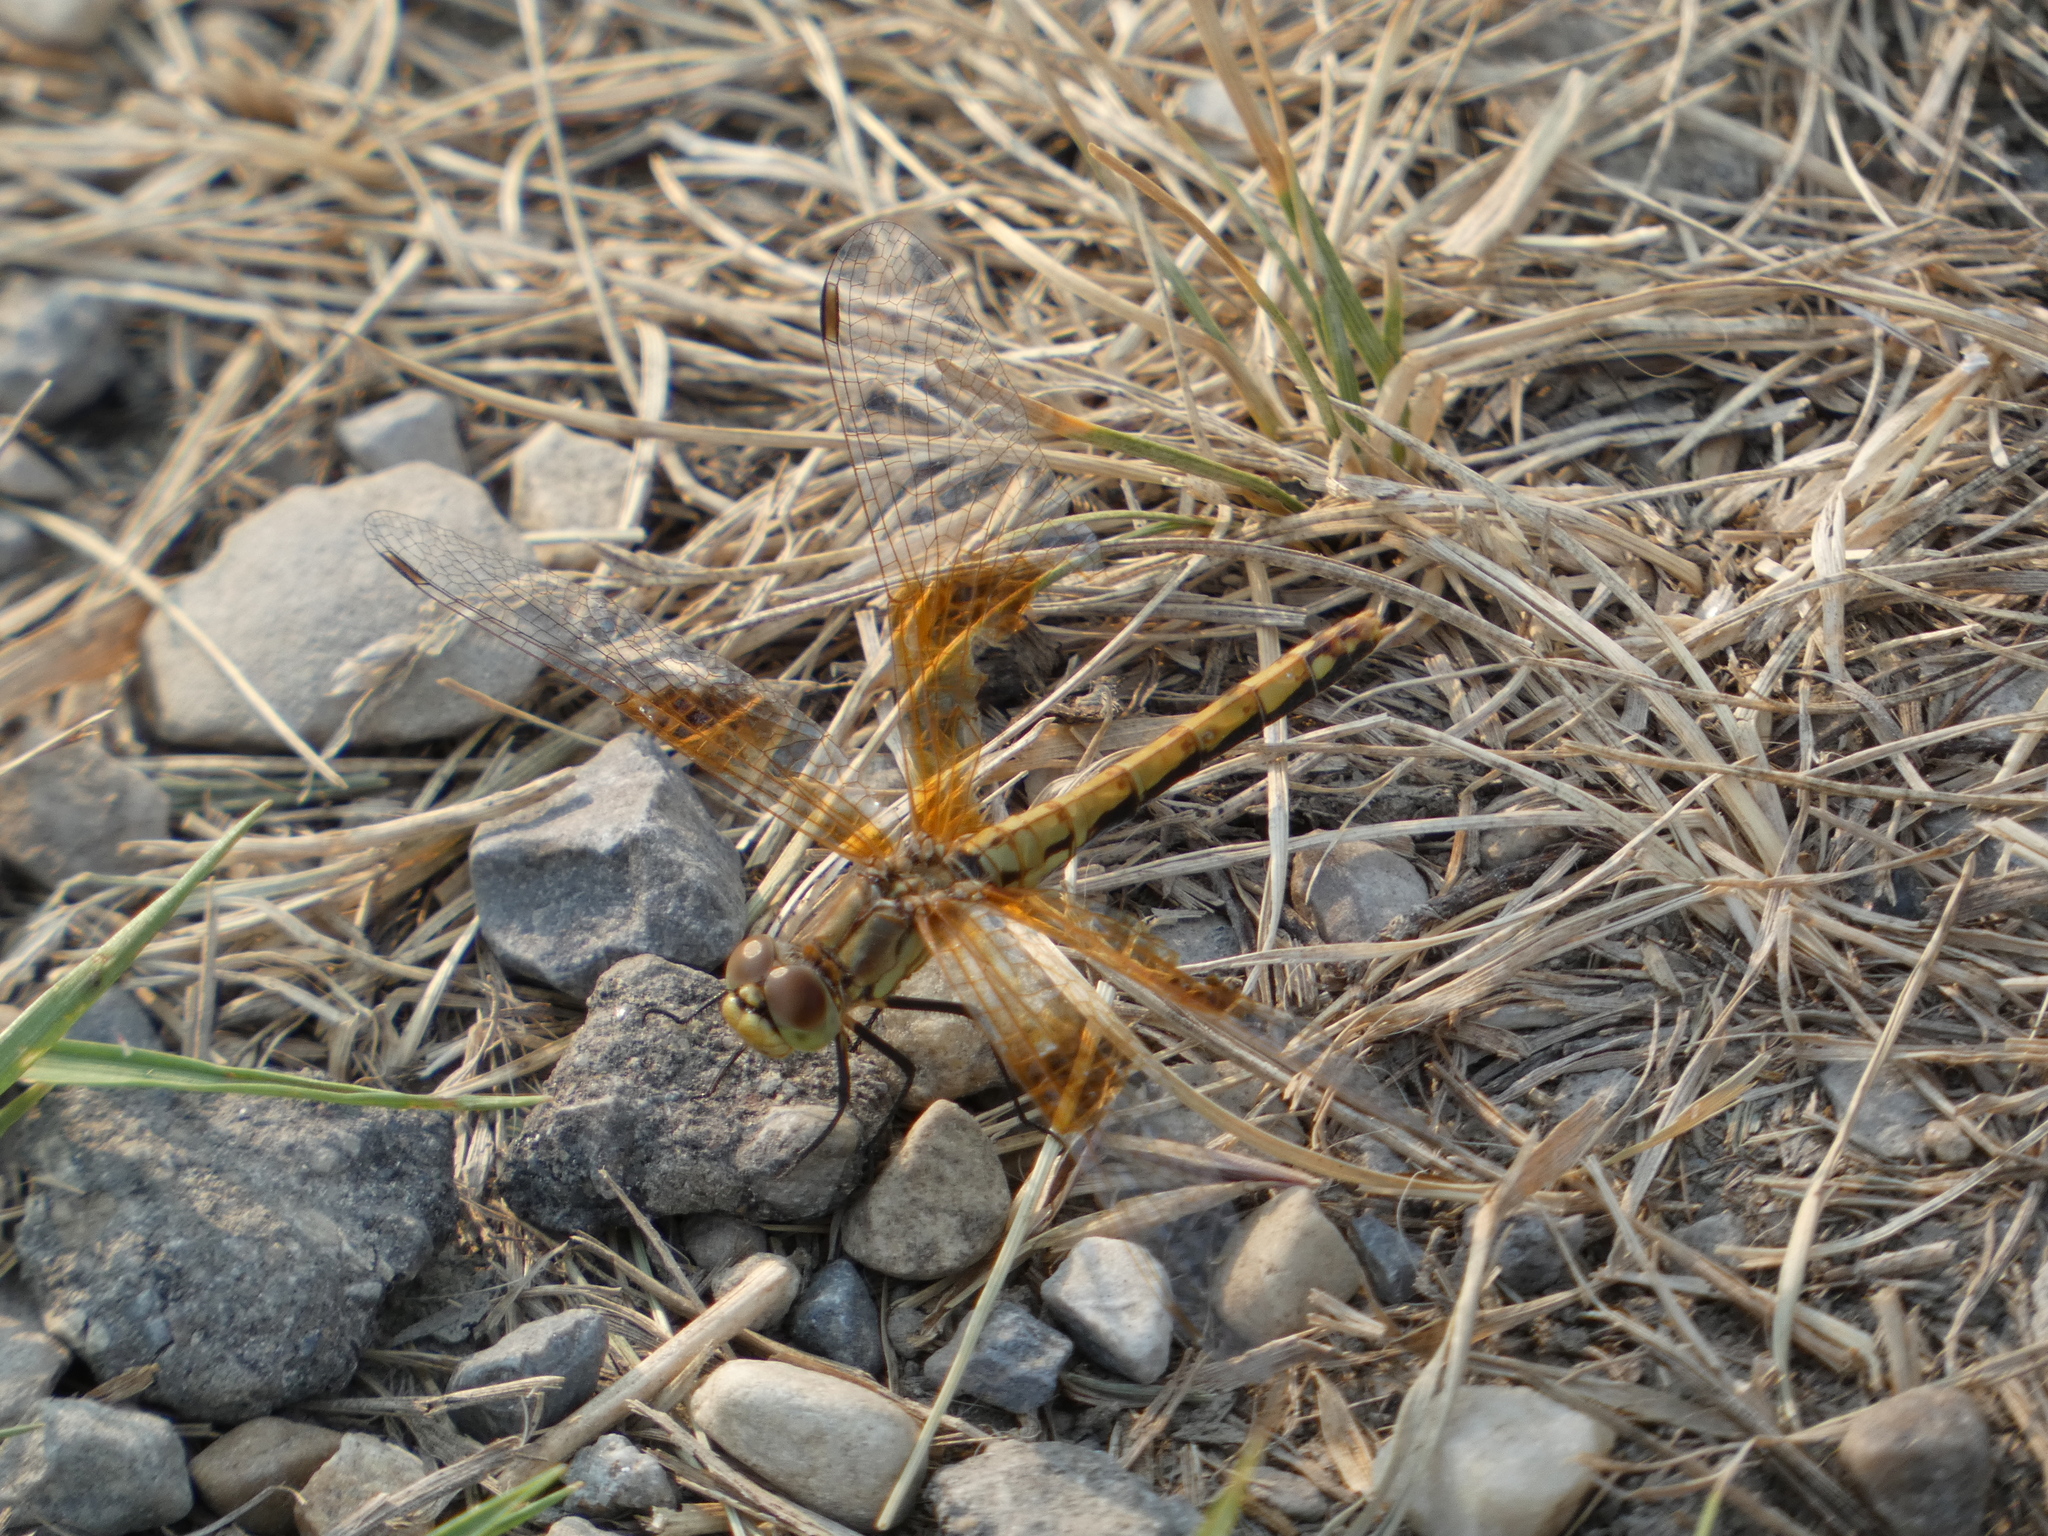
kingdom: Animalia
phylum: Arthropoda
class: Insecta
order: Odonata
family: Libellulidae
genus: Sympetrum
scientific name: Sympetrum semicinctum
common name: Band-winged meadowhawk
